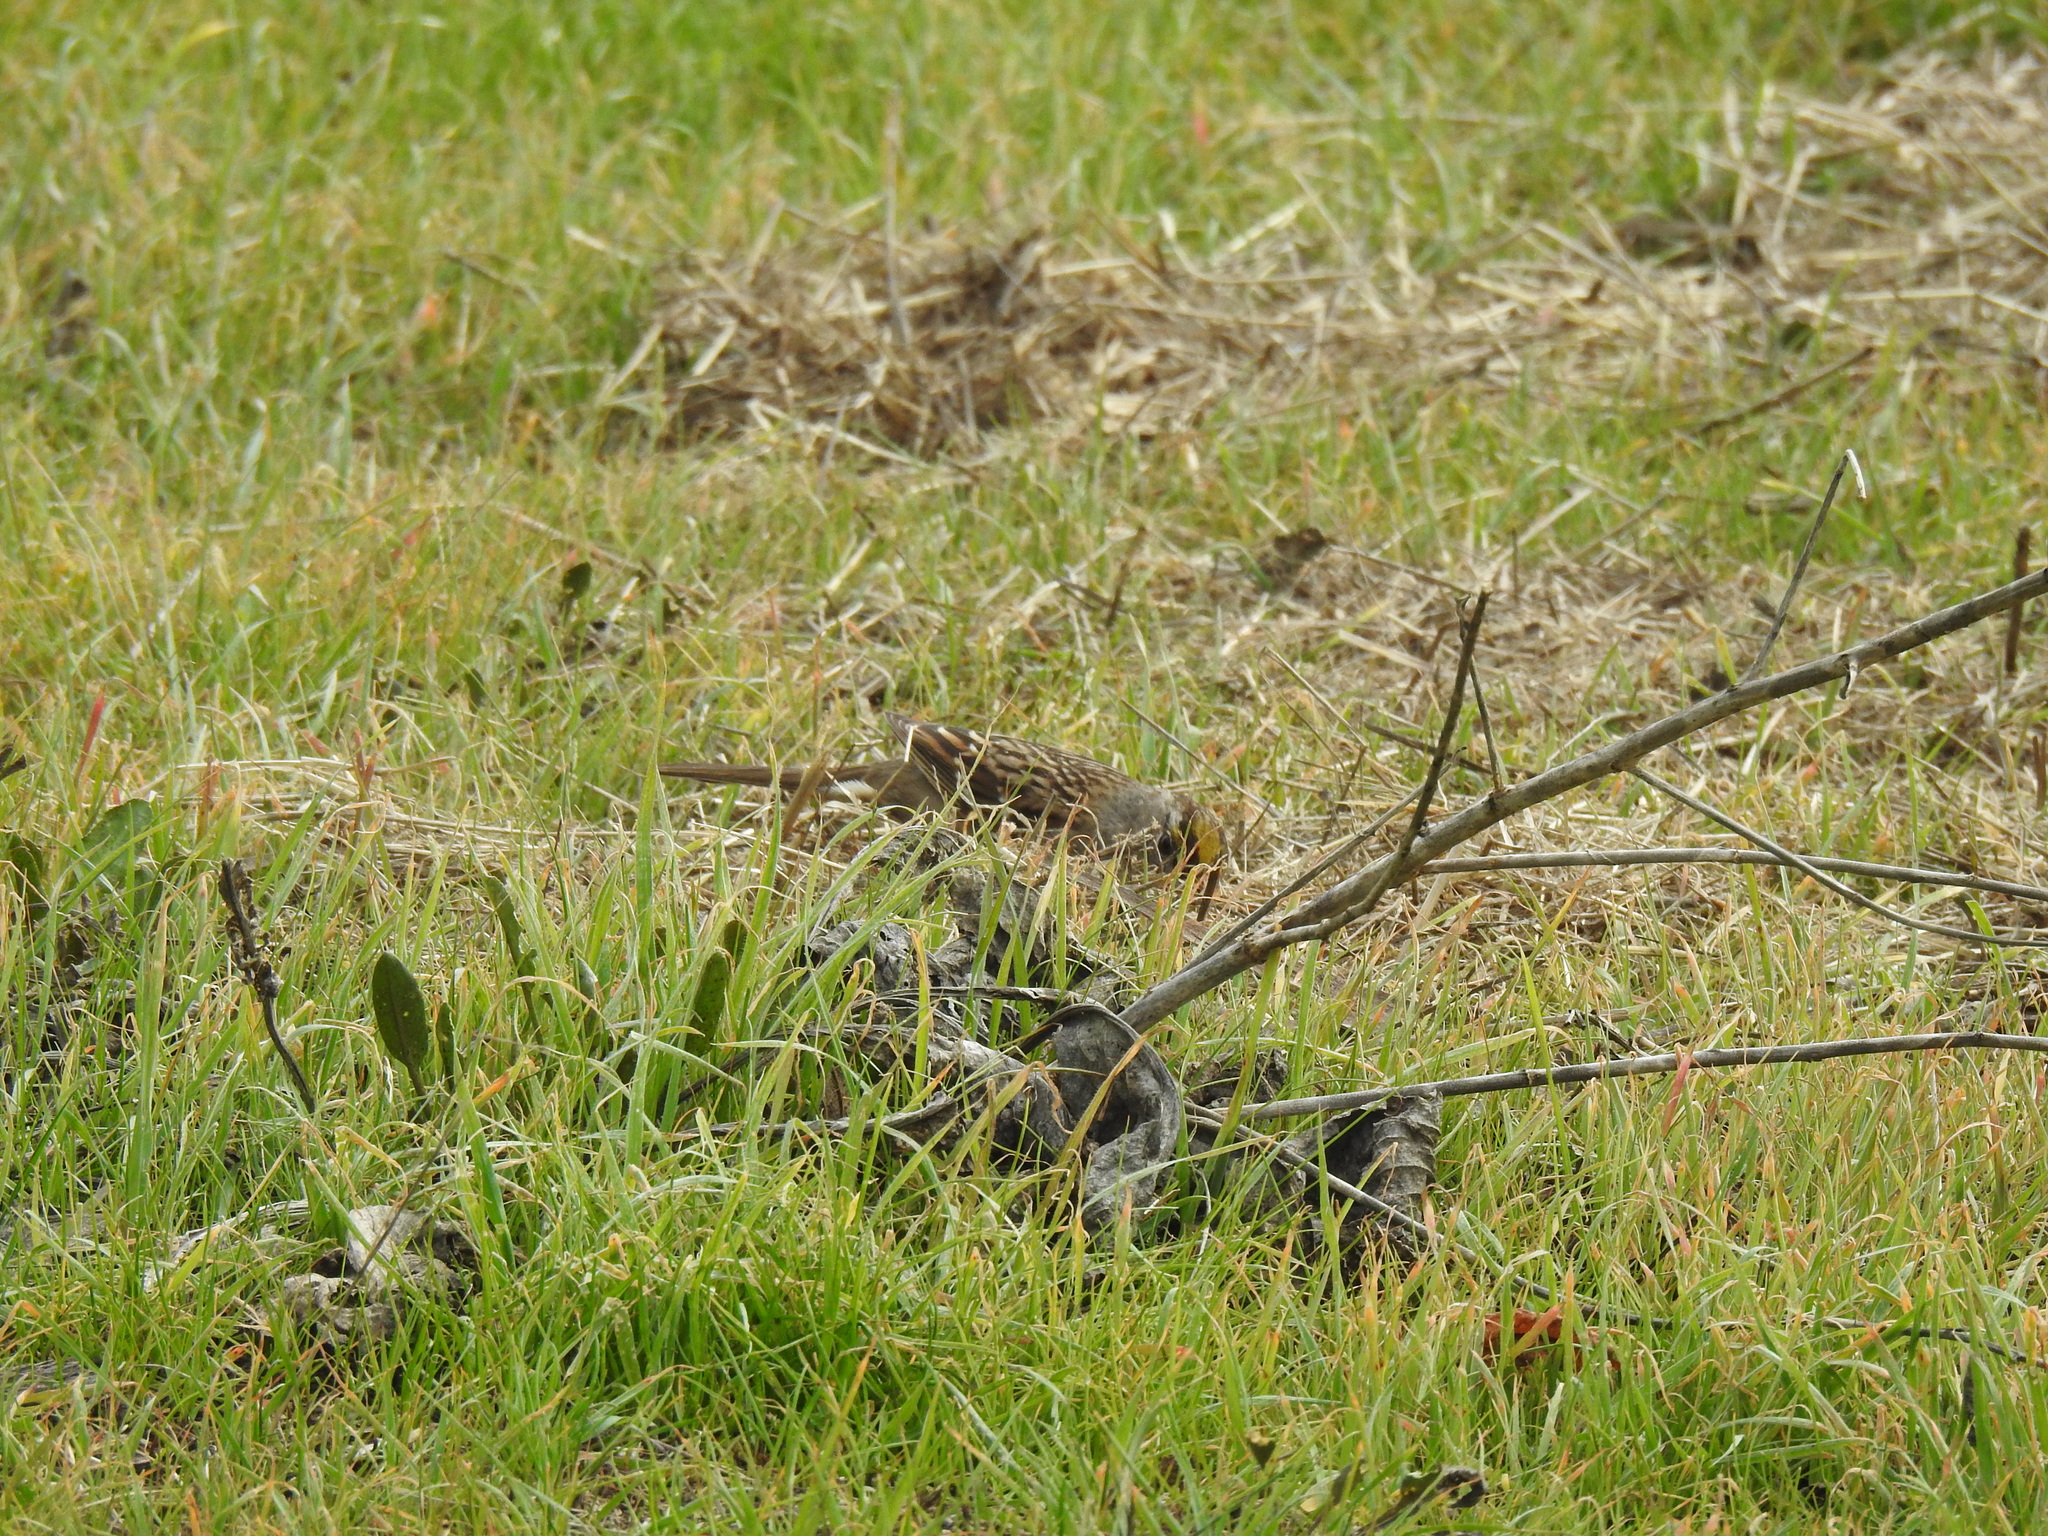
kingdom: Animalia
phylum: Chordata
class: Aves
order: Passeriformes
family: Passerellidae
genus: Zonotrichia
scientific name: Zonotrichia atricapilla
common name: Golden-crowned sparrow
